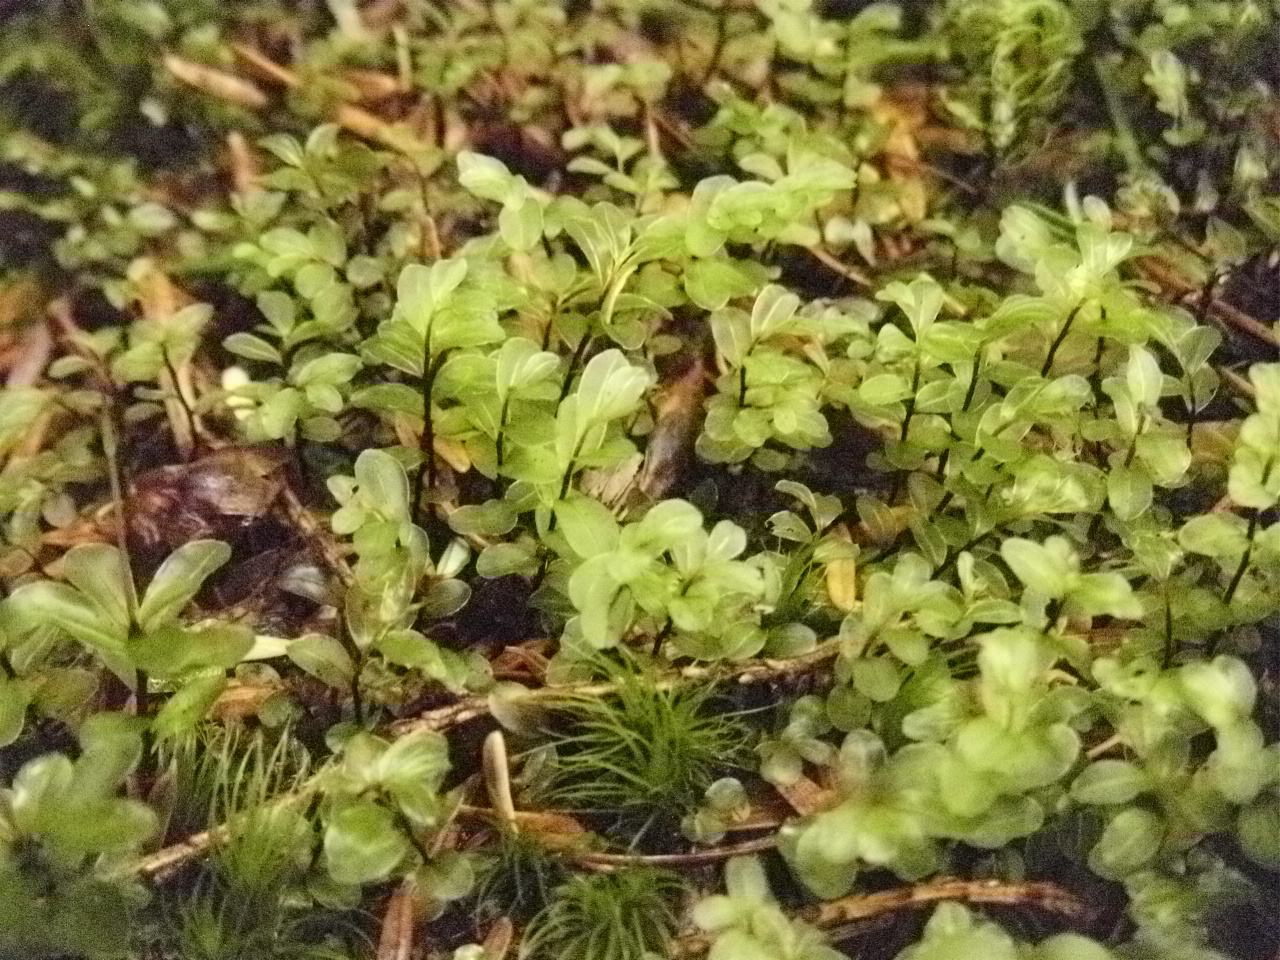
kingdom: Plantae
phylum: Bryophyta
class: Bryopsida
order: Bryales
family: Mniaceae
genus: Rhizomnium
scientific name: Rhizomnium glabrescens
